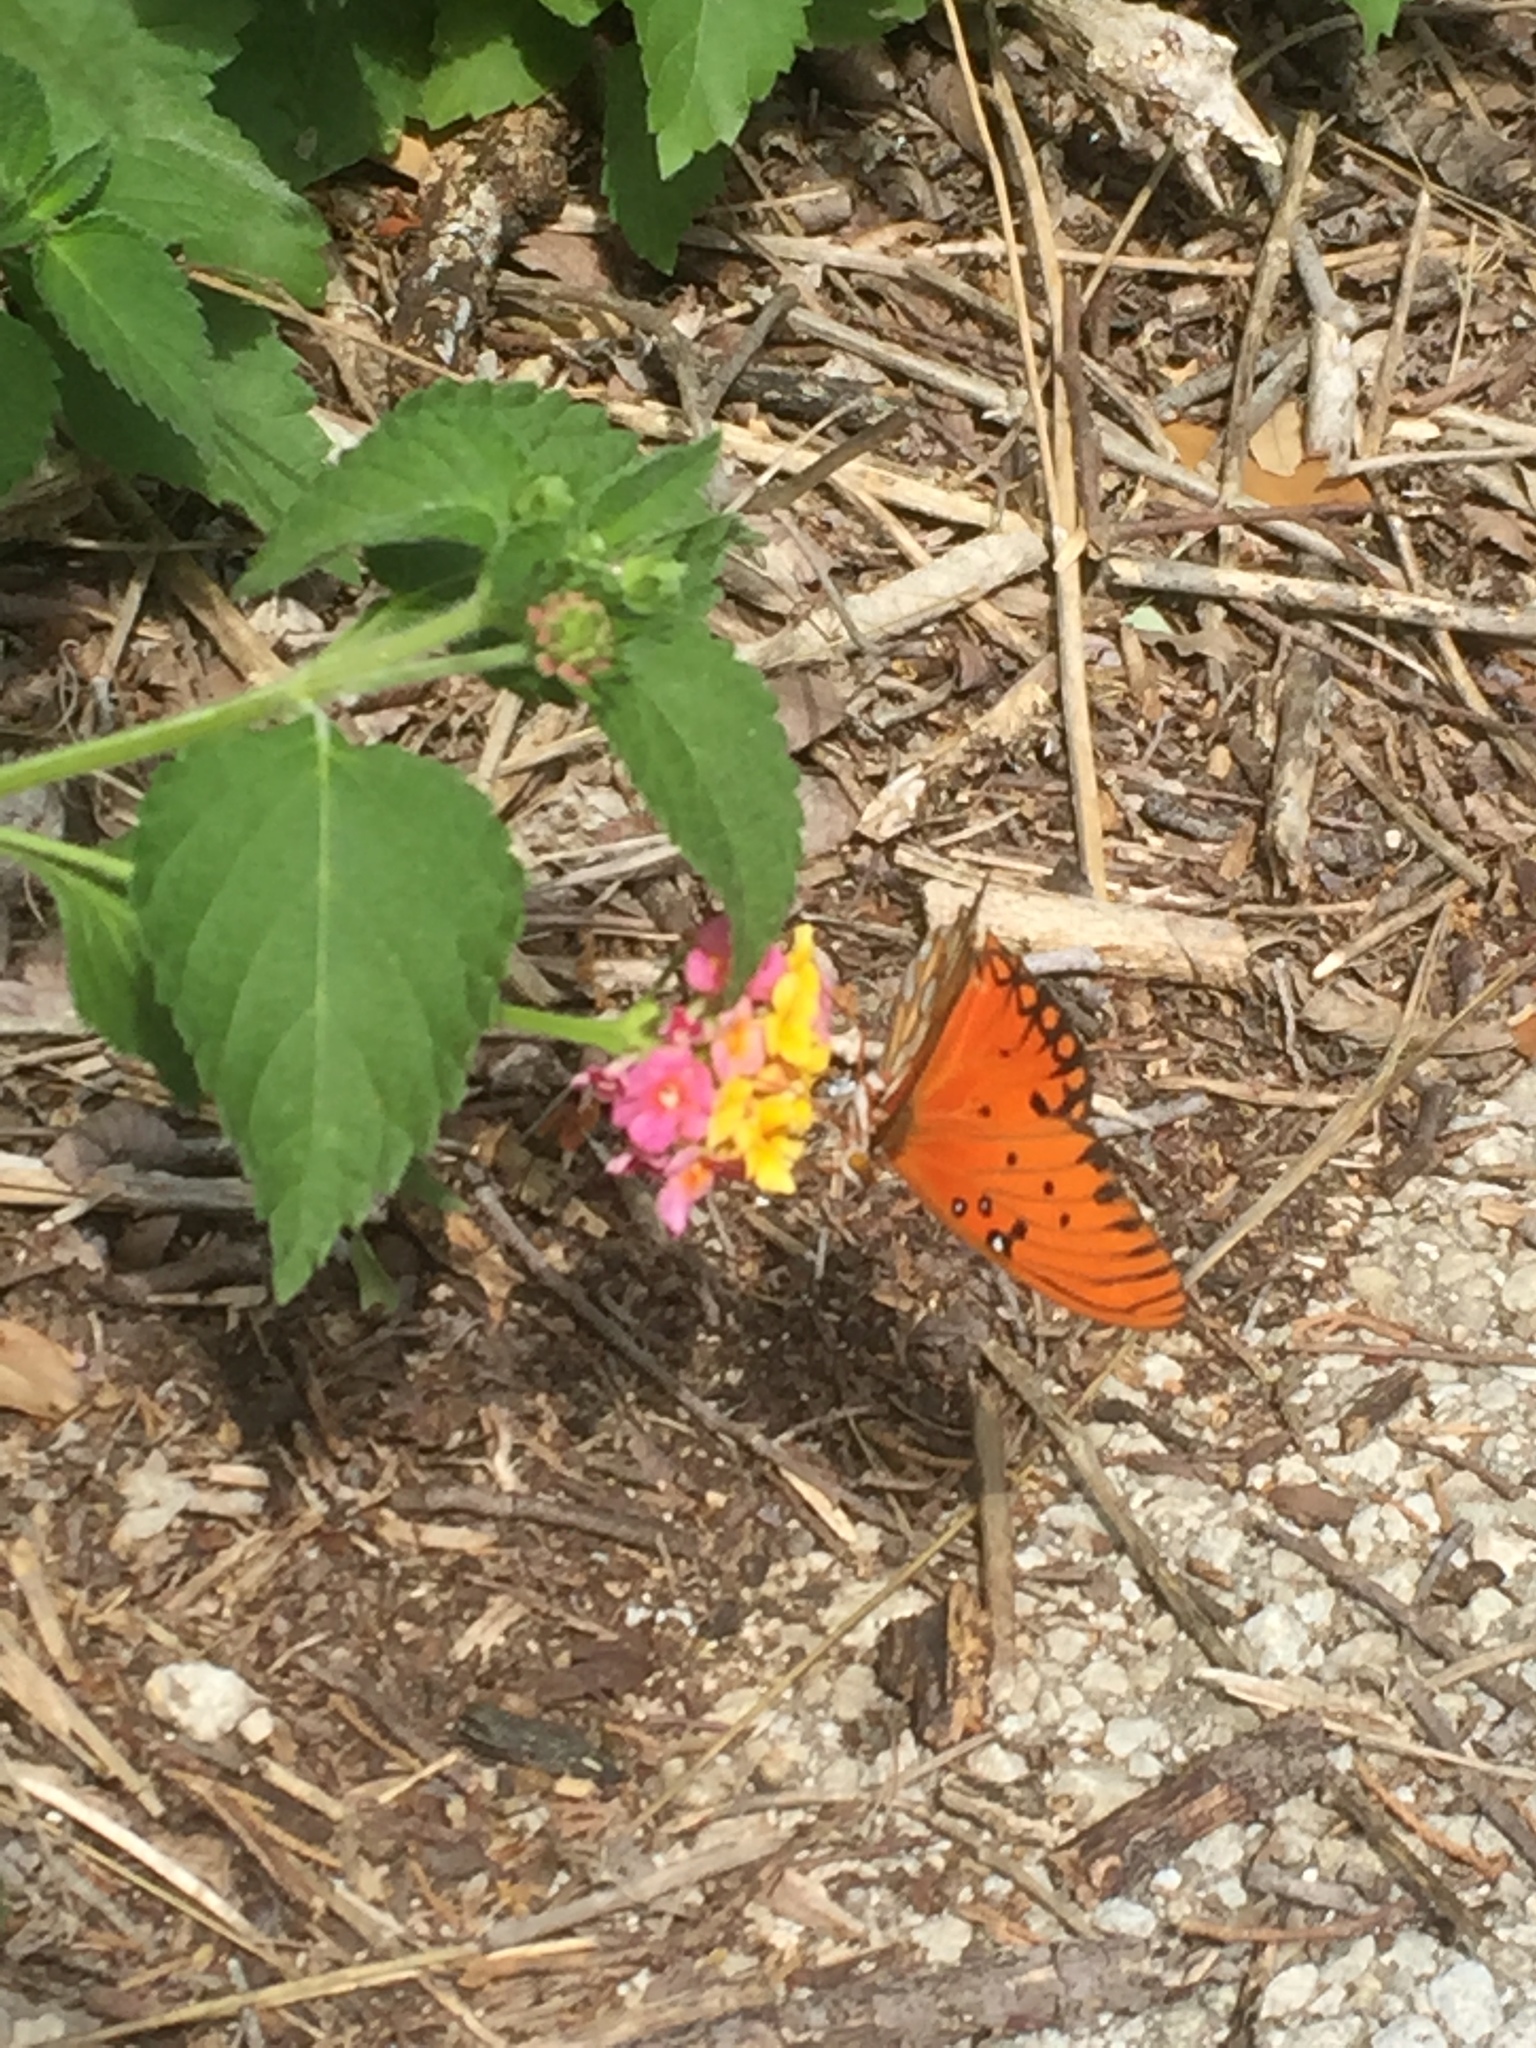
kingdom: Animalia
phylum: Arthropoda
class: Insecta
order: Lepidoptera
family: Nymphalidae
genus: Dione
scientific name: Dione vanillae
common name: Gulf fritillary
